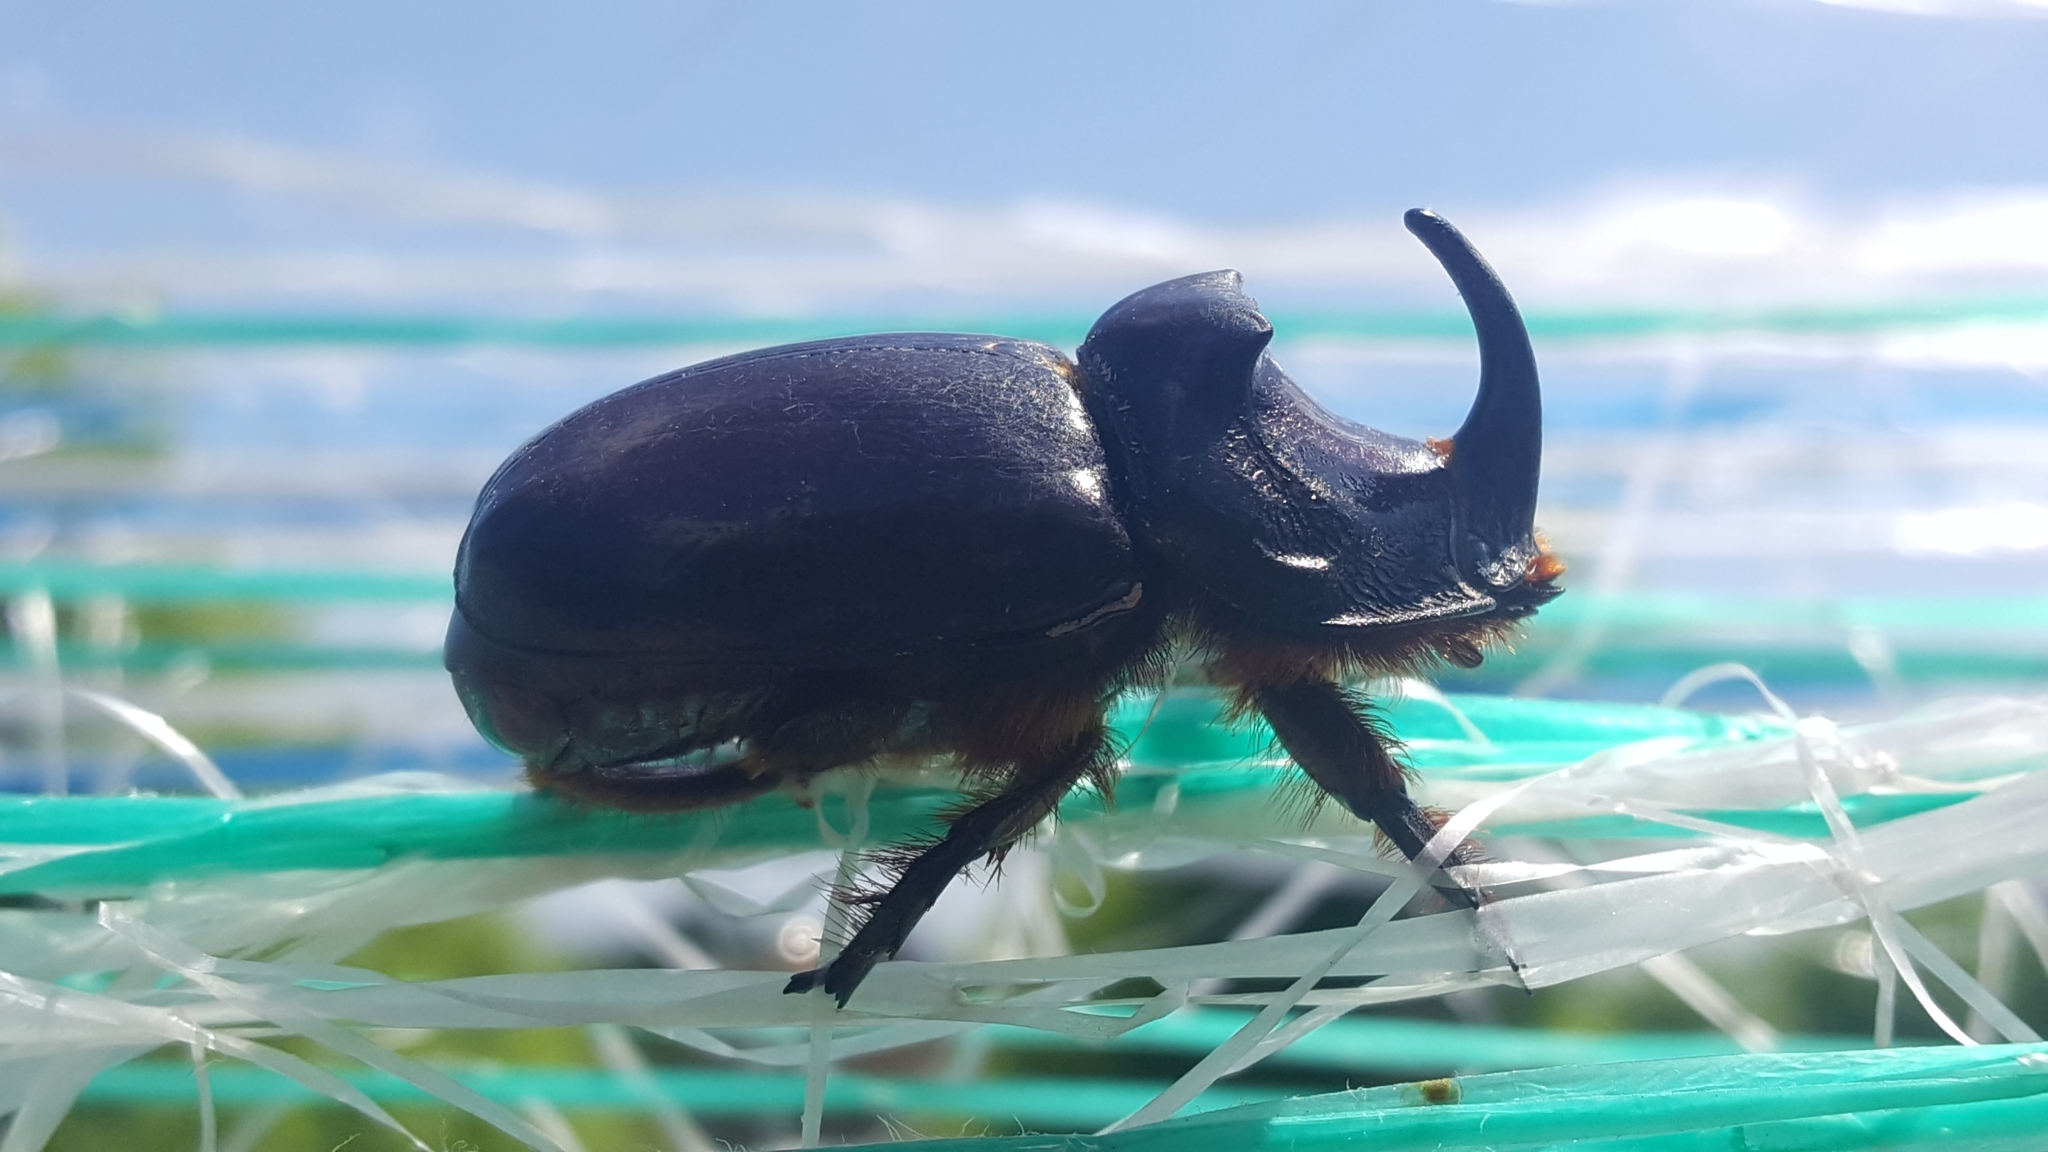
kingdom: Animalia
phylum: Arthropoda
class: Insecta
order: Coleoptera
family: Scarabaeidae
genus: Oryctes
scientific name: Oryctes nasicornis
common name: European rhinoceros beetle
